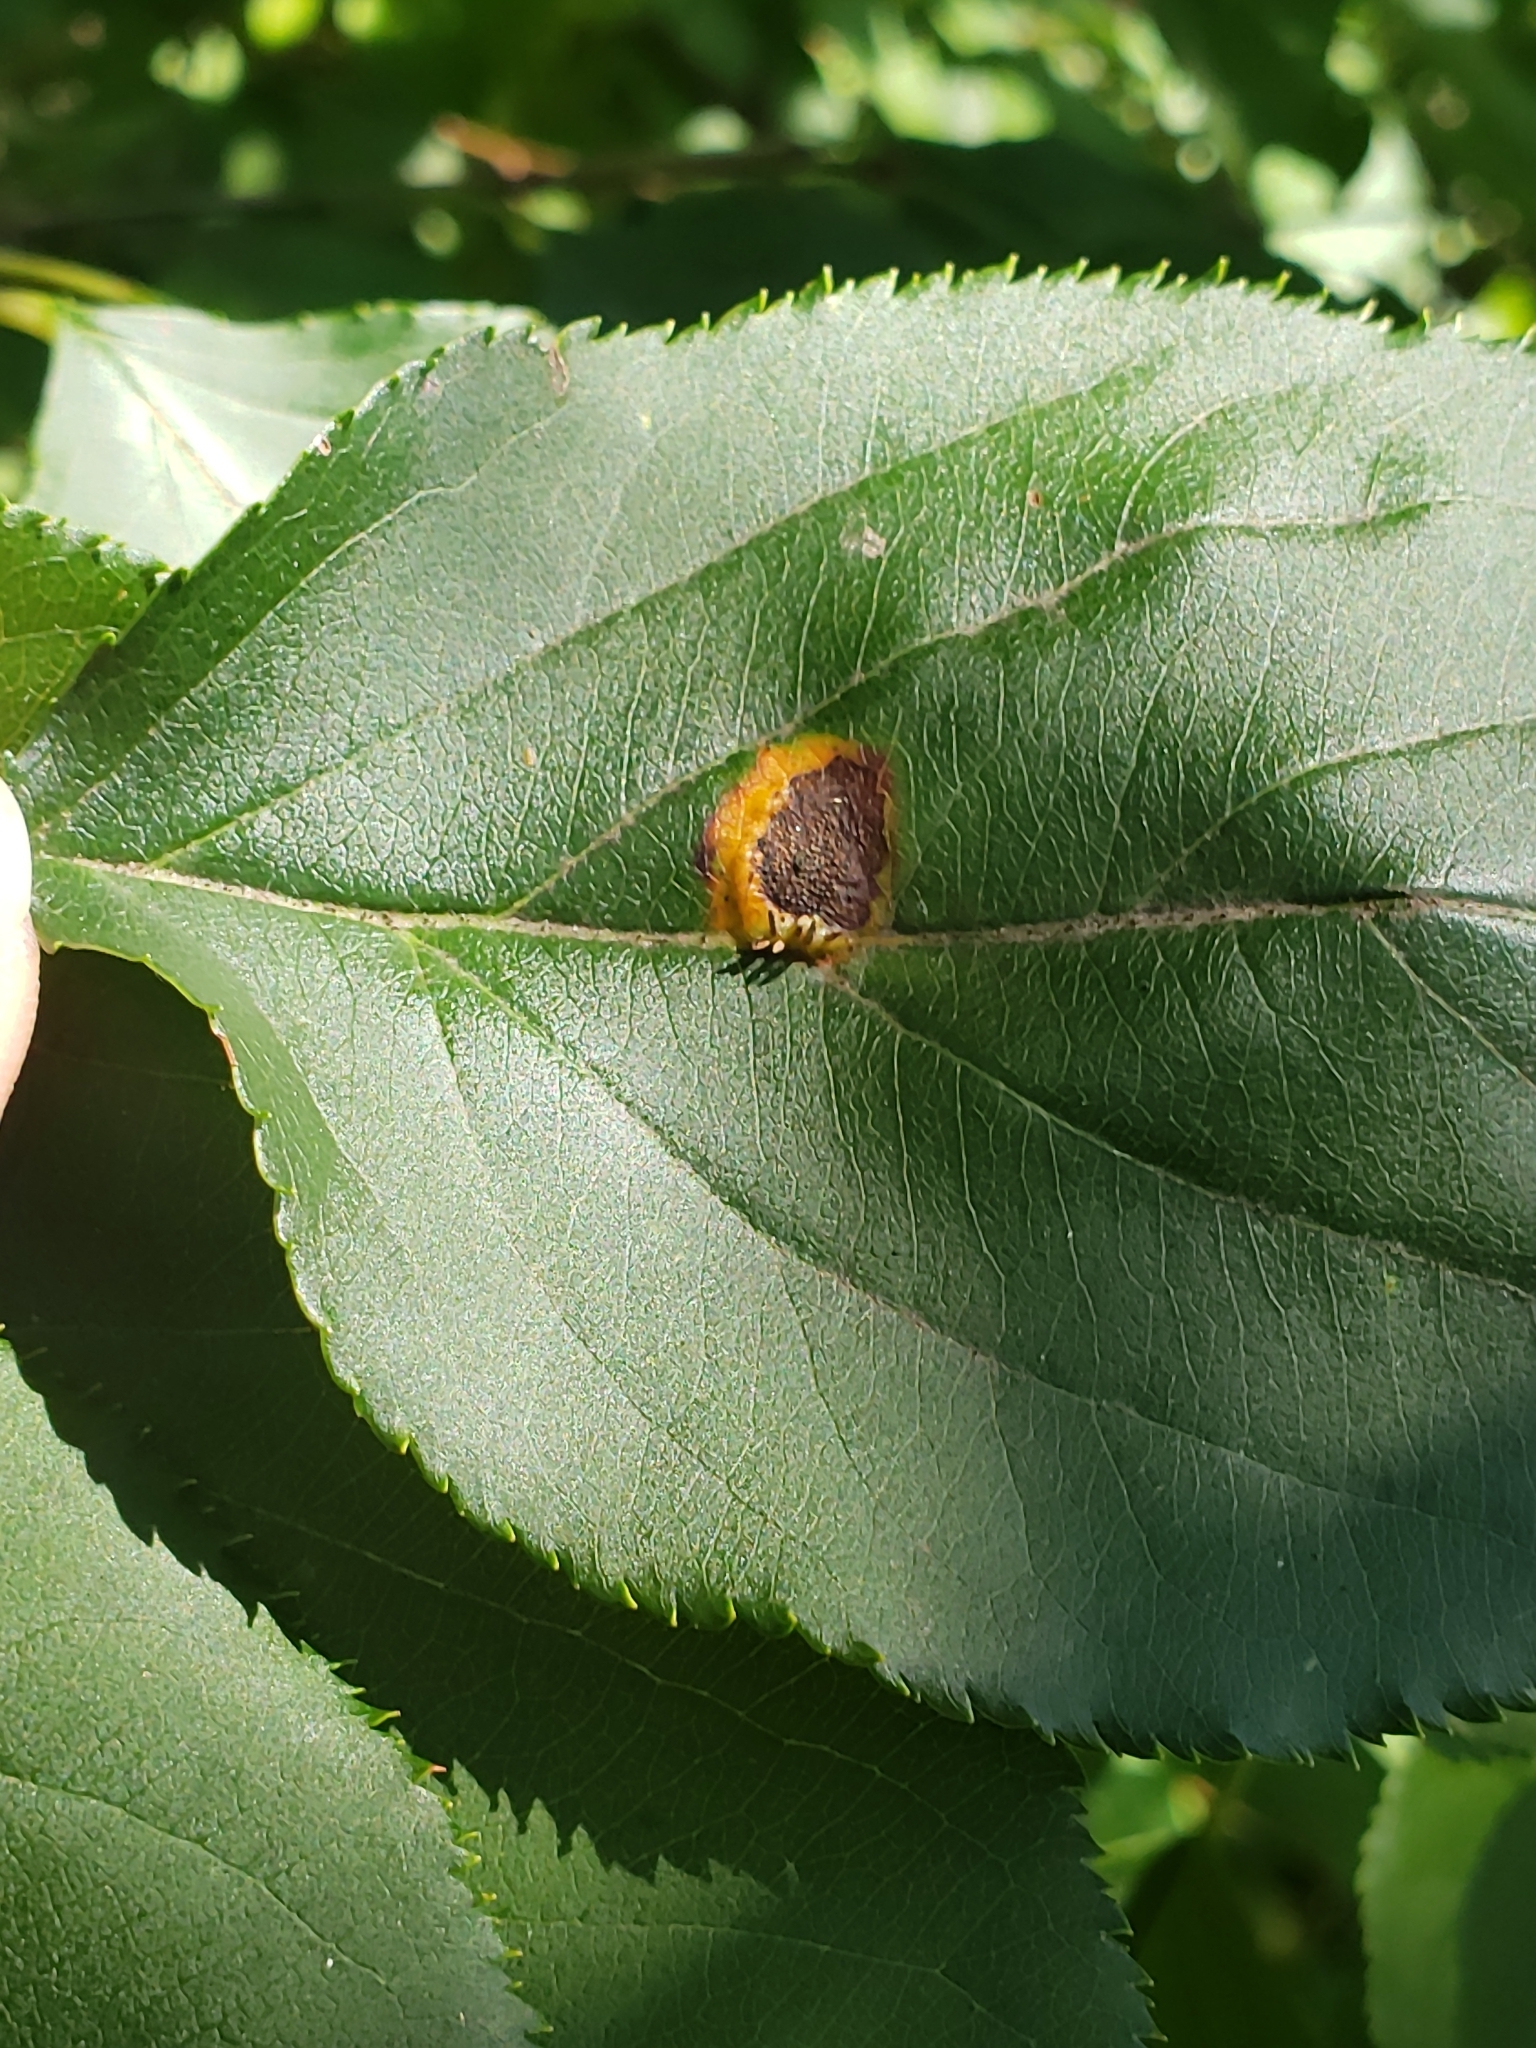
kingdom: Fungi
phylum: Basidiomycota
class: Pucciniomycetes
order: Pucciniales
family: Gymnosporangiaceae
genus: Gymnosporangium
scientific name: Gymnosporangium juniperi-virginianae
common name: Juniper-apple rust
